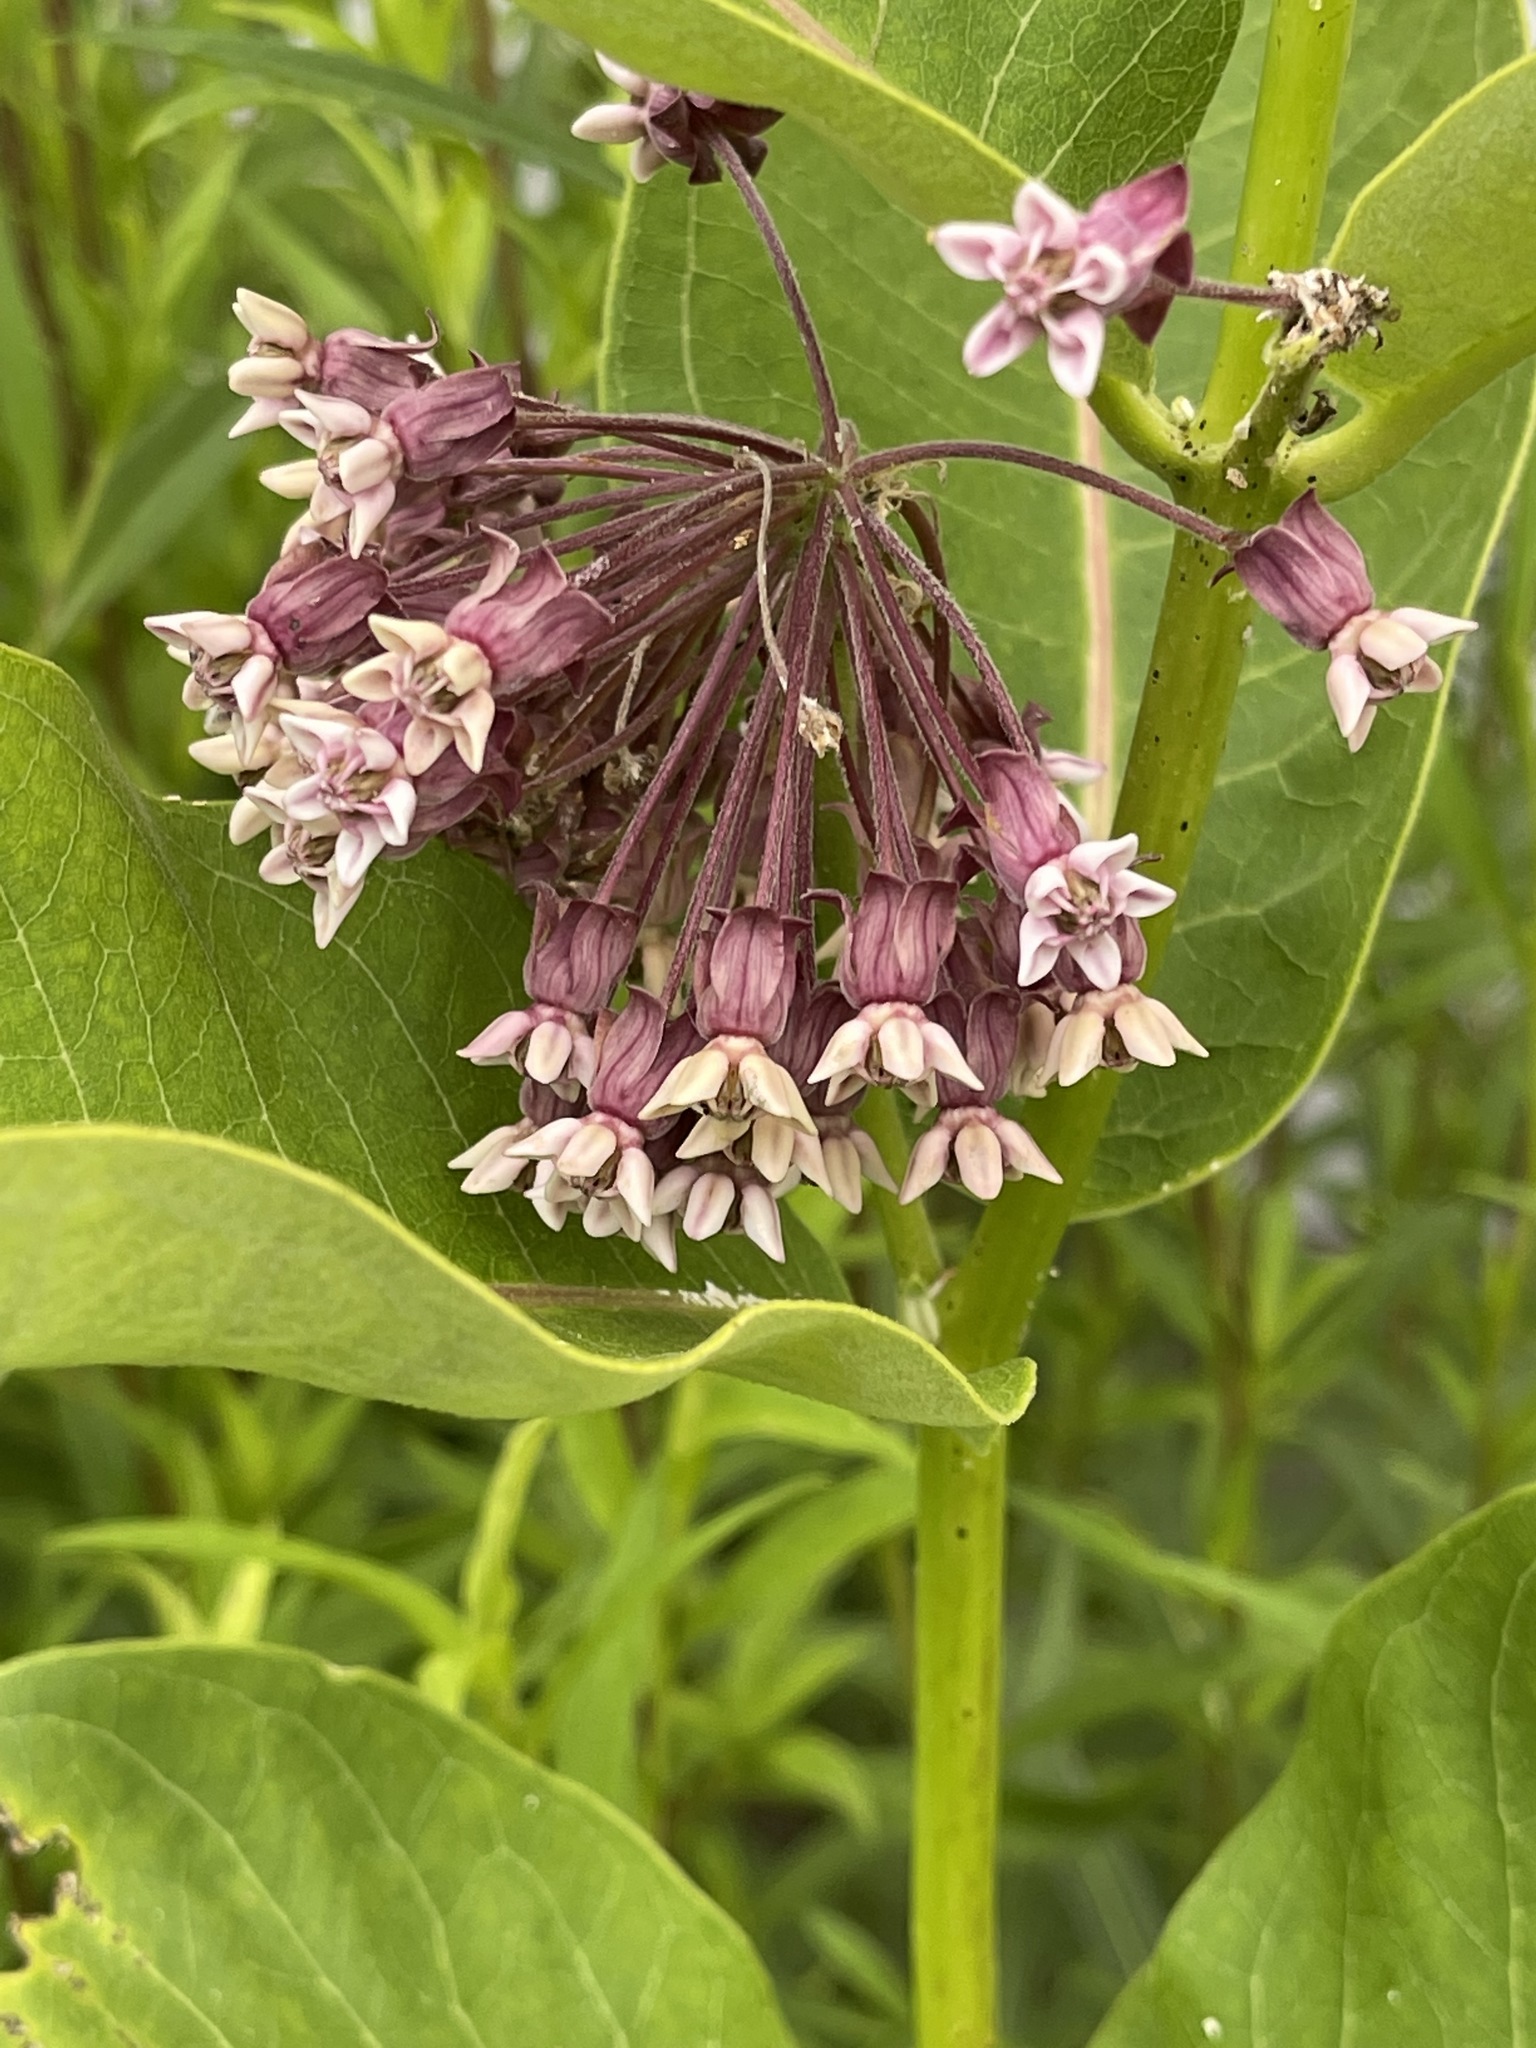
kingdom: Plantae
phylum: Tracheophyta
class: Magnoliopsida
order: Gentianales
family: Apocynaceae
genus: Asclepias
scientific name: Asclepias syriaca
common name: Common milkweed
